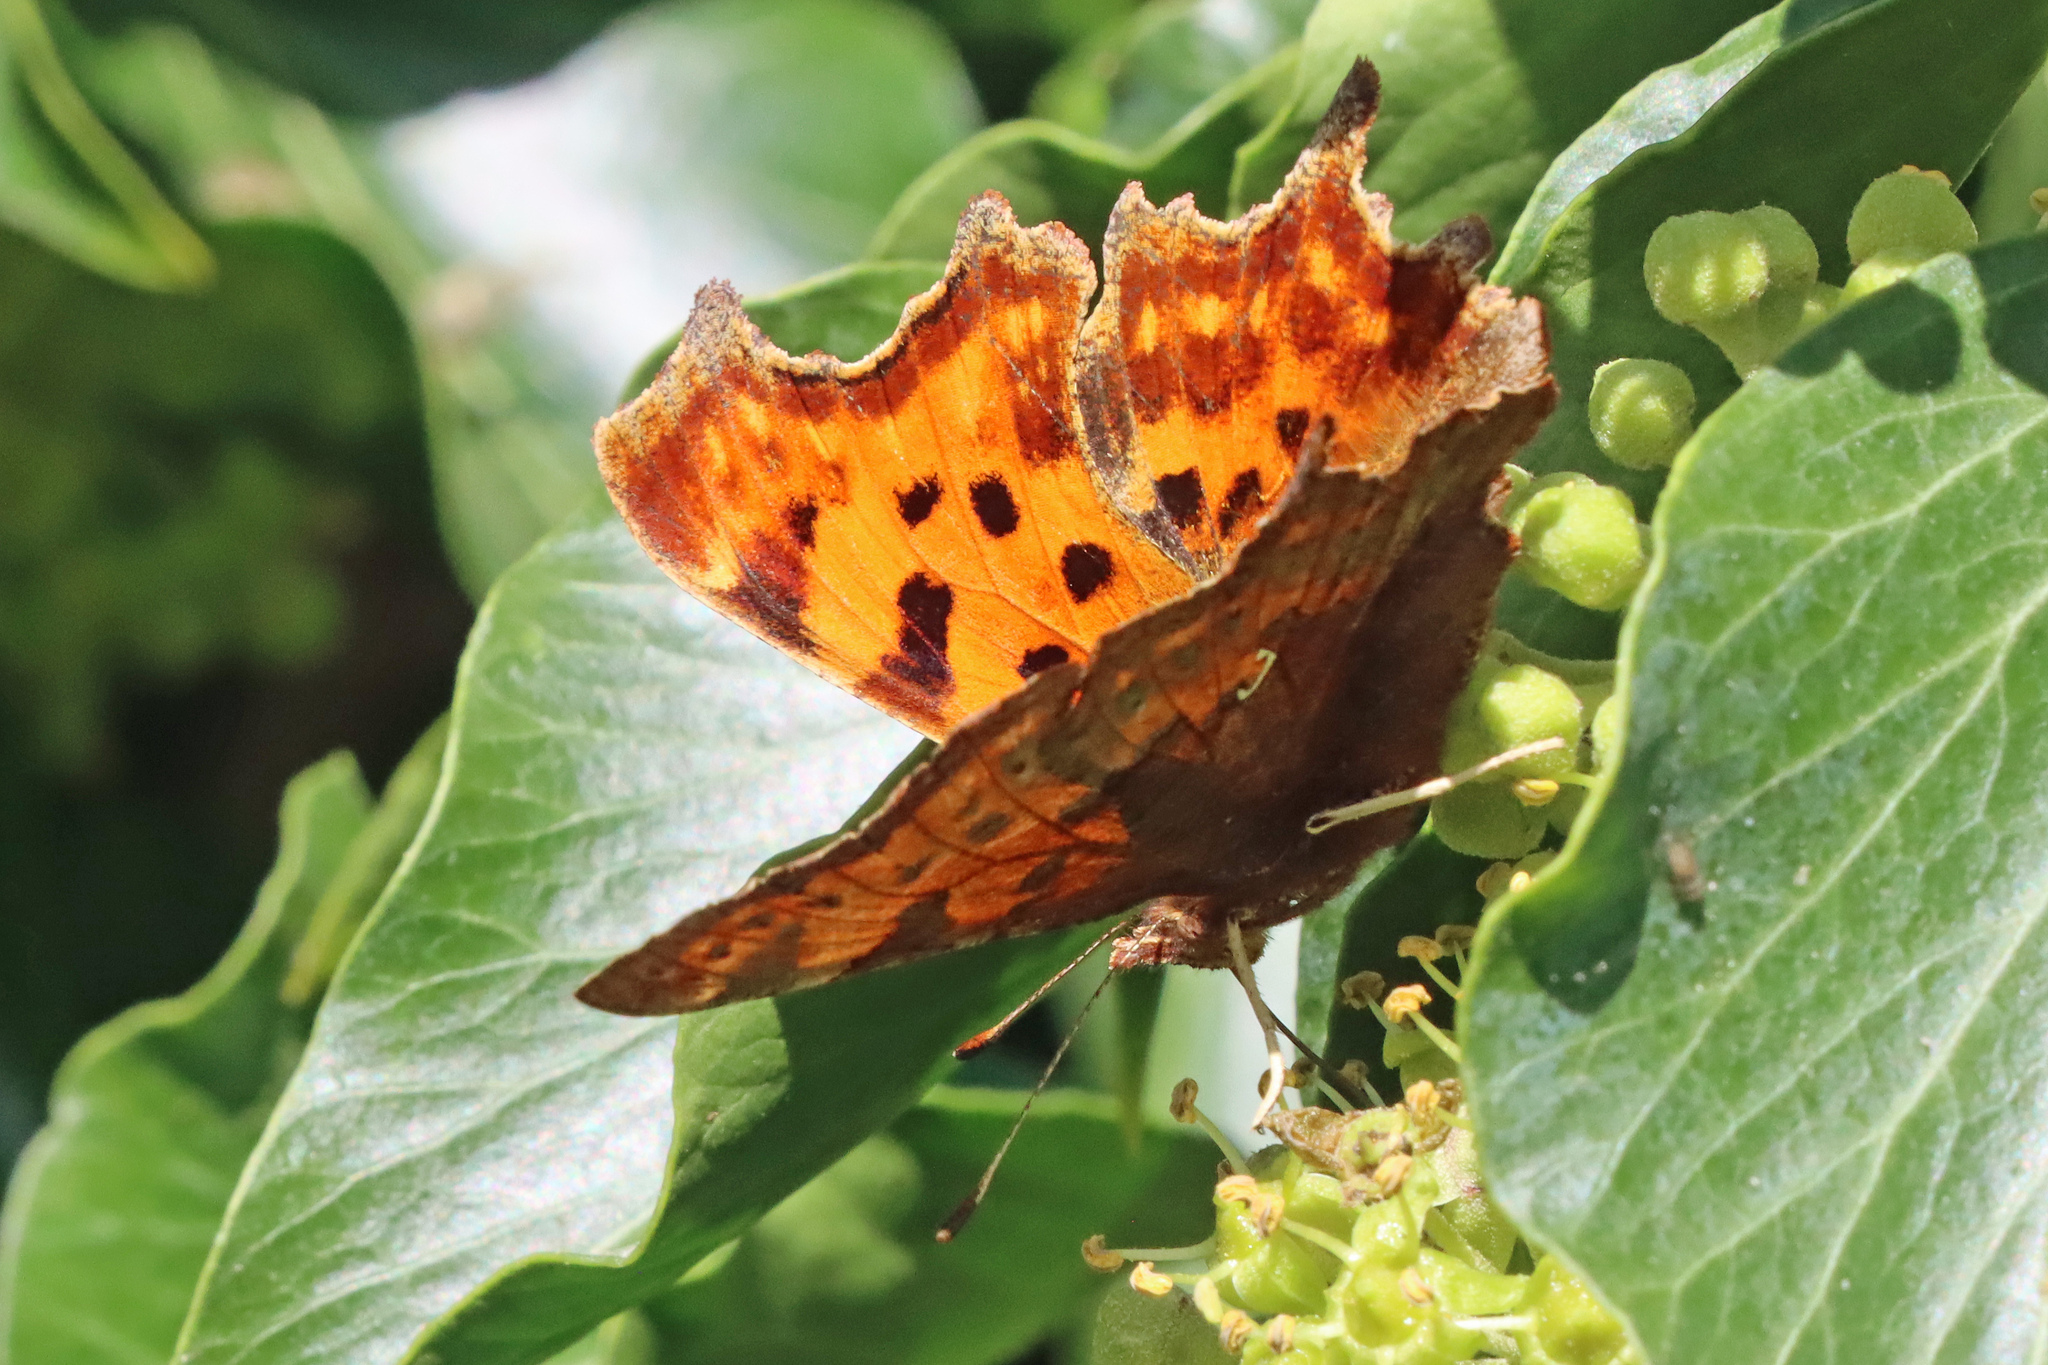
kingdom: Animalia
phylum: Arthropoda
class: Insecta
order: Lepidoptera
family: Nymphalidae
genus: Polygonia
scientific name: Polygonia c-album
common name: Comma
